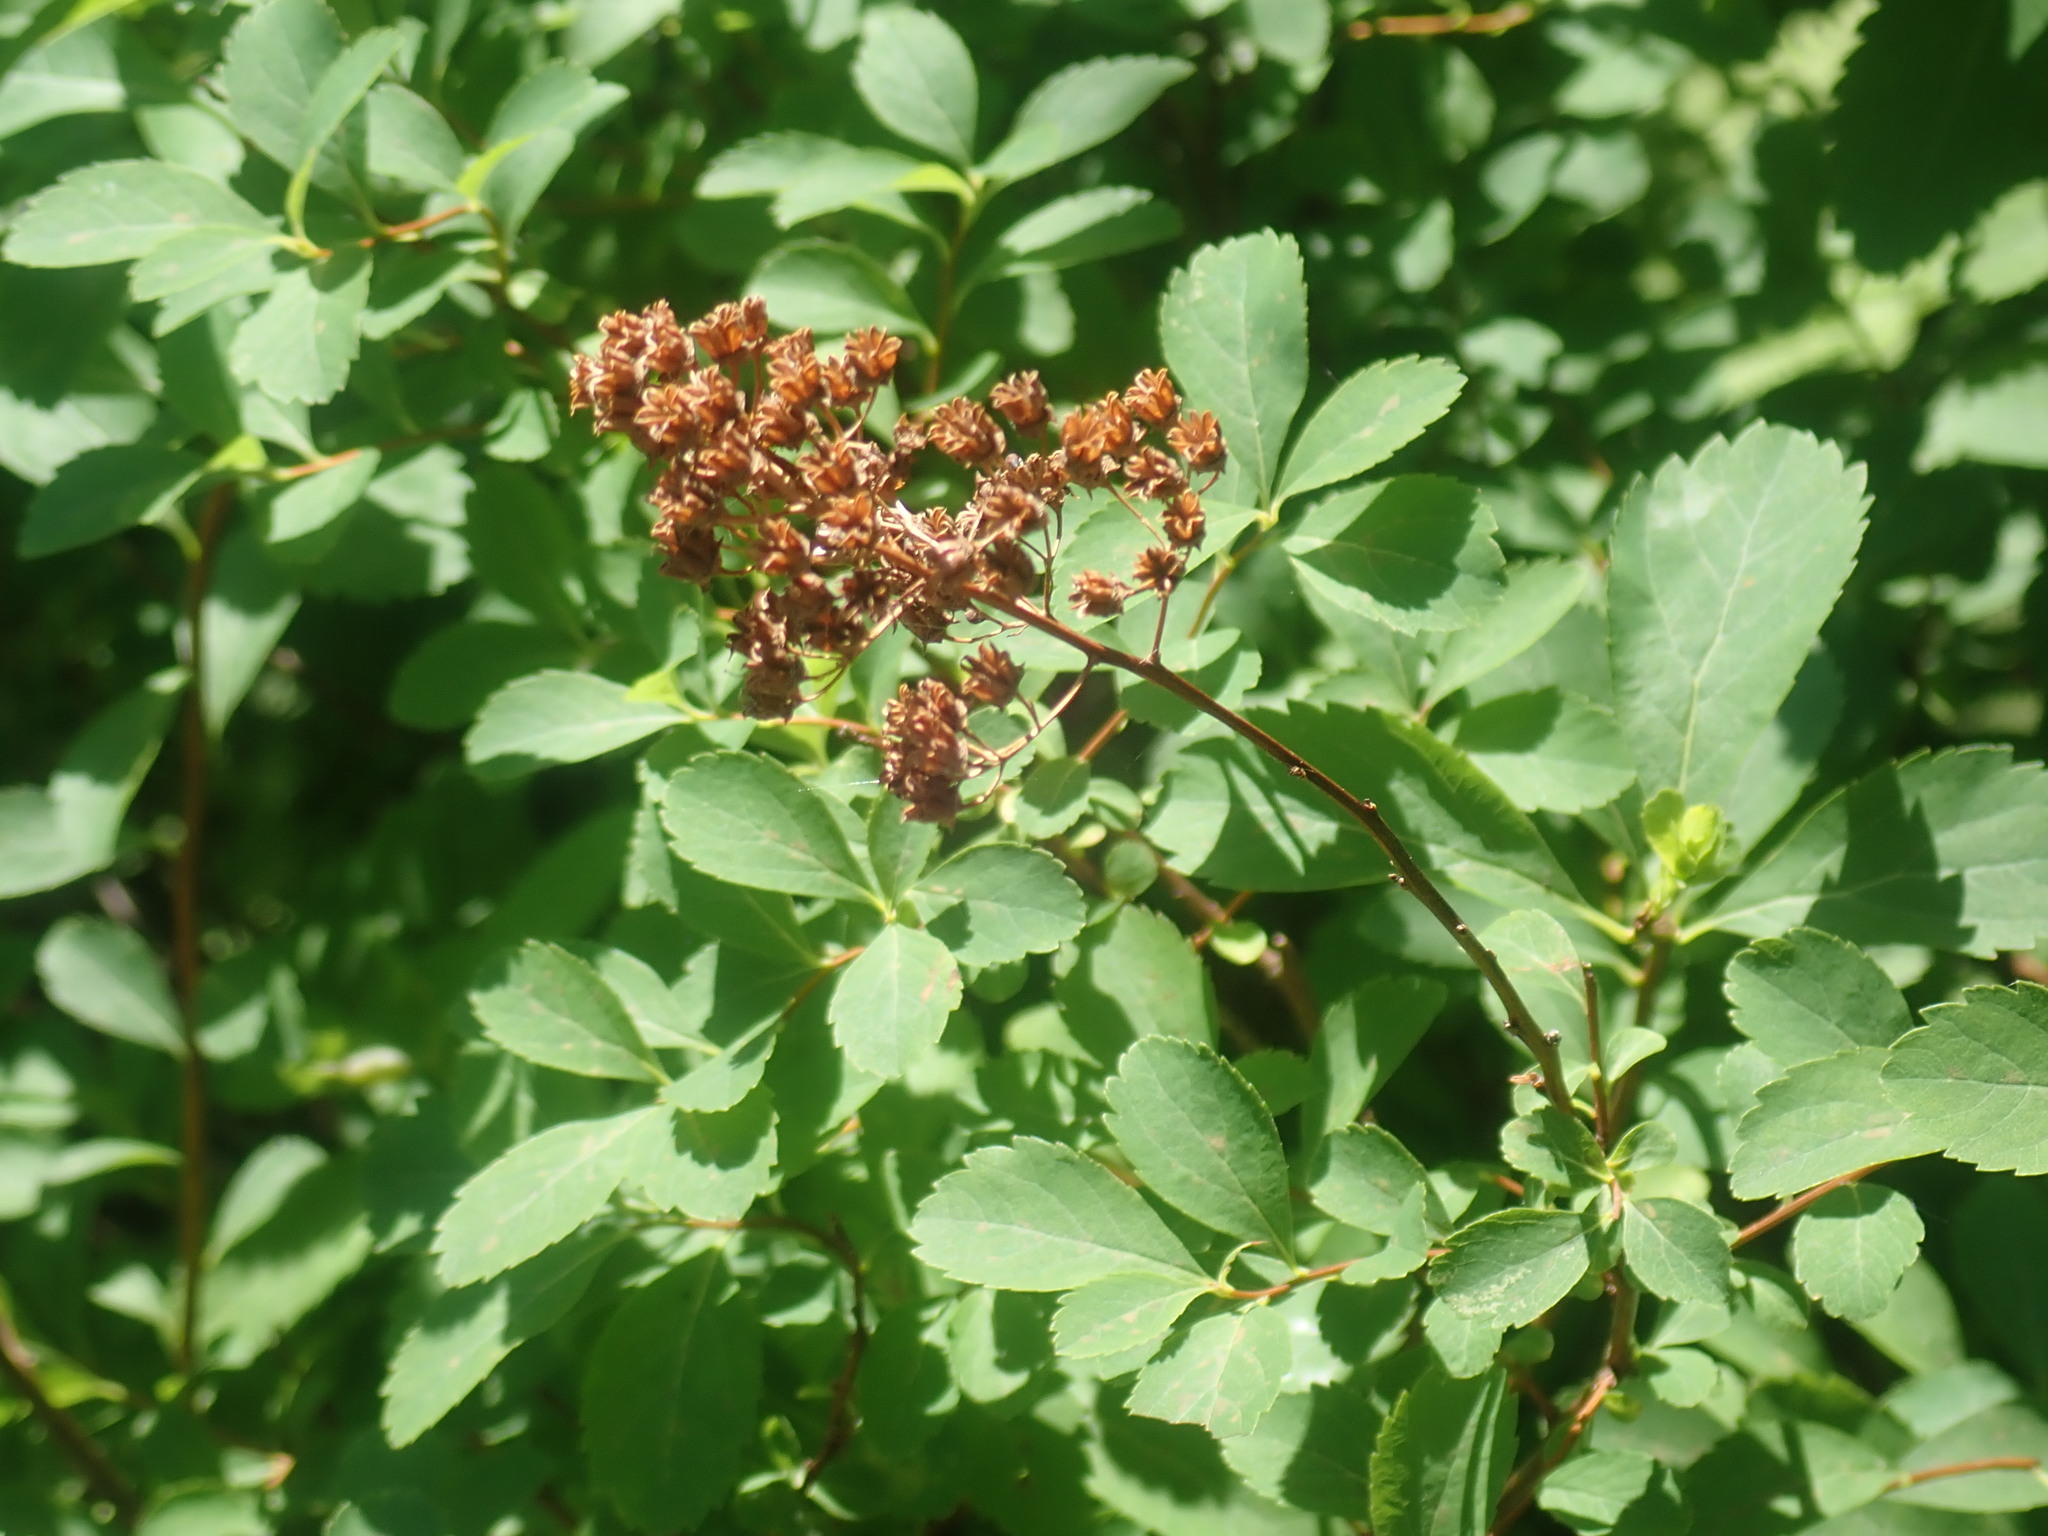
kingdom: Plantae
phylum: Tracheophyta
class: Magnoliopsida
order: Rosales
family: Rosaceae
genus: Spiraea
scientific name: Spiraea alba
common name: Pale bridewort
